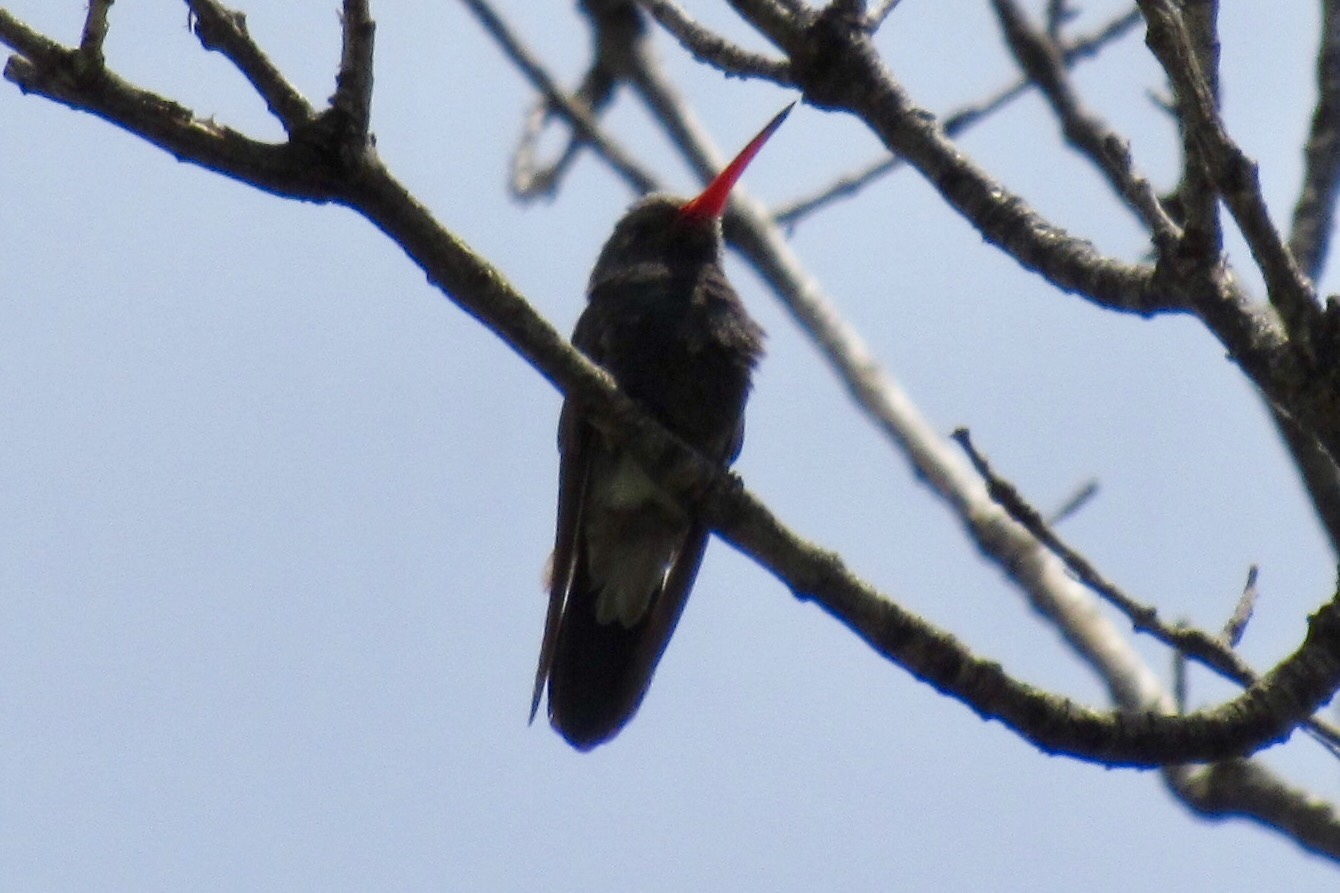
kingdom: Animalia
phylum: Chordata
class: Aves
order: Apodiformes
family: Trochilidae
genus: Cynanthus
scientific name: Cynanthus latirostris
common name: Broad-billed hummingbird
